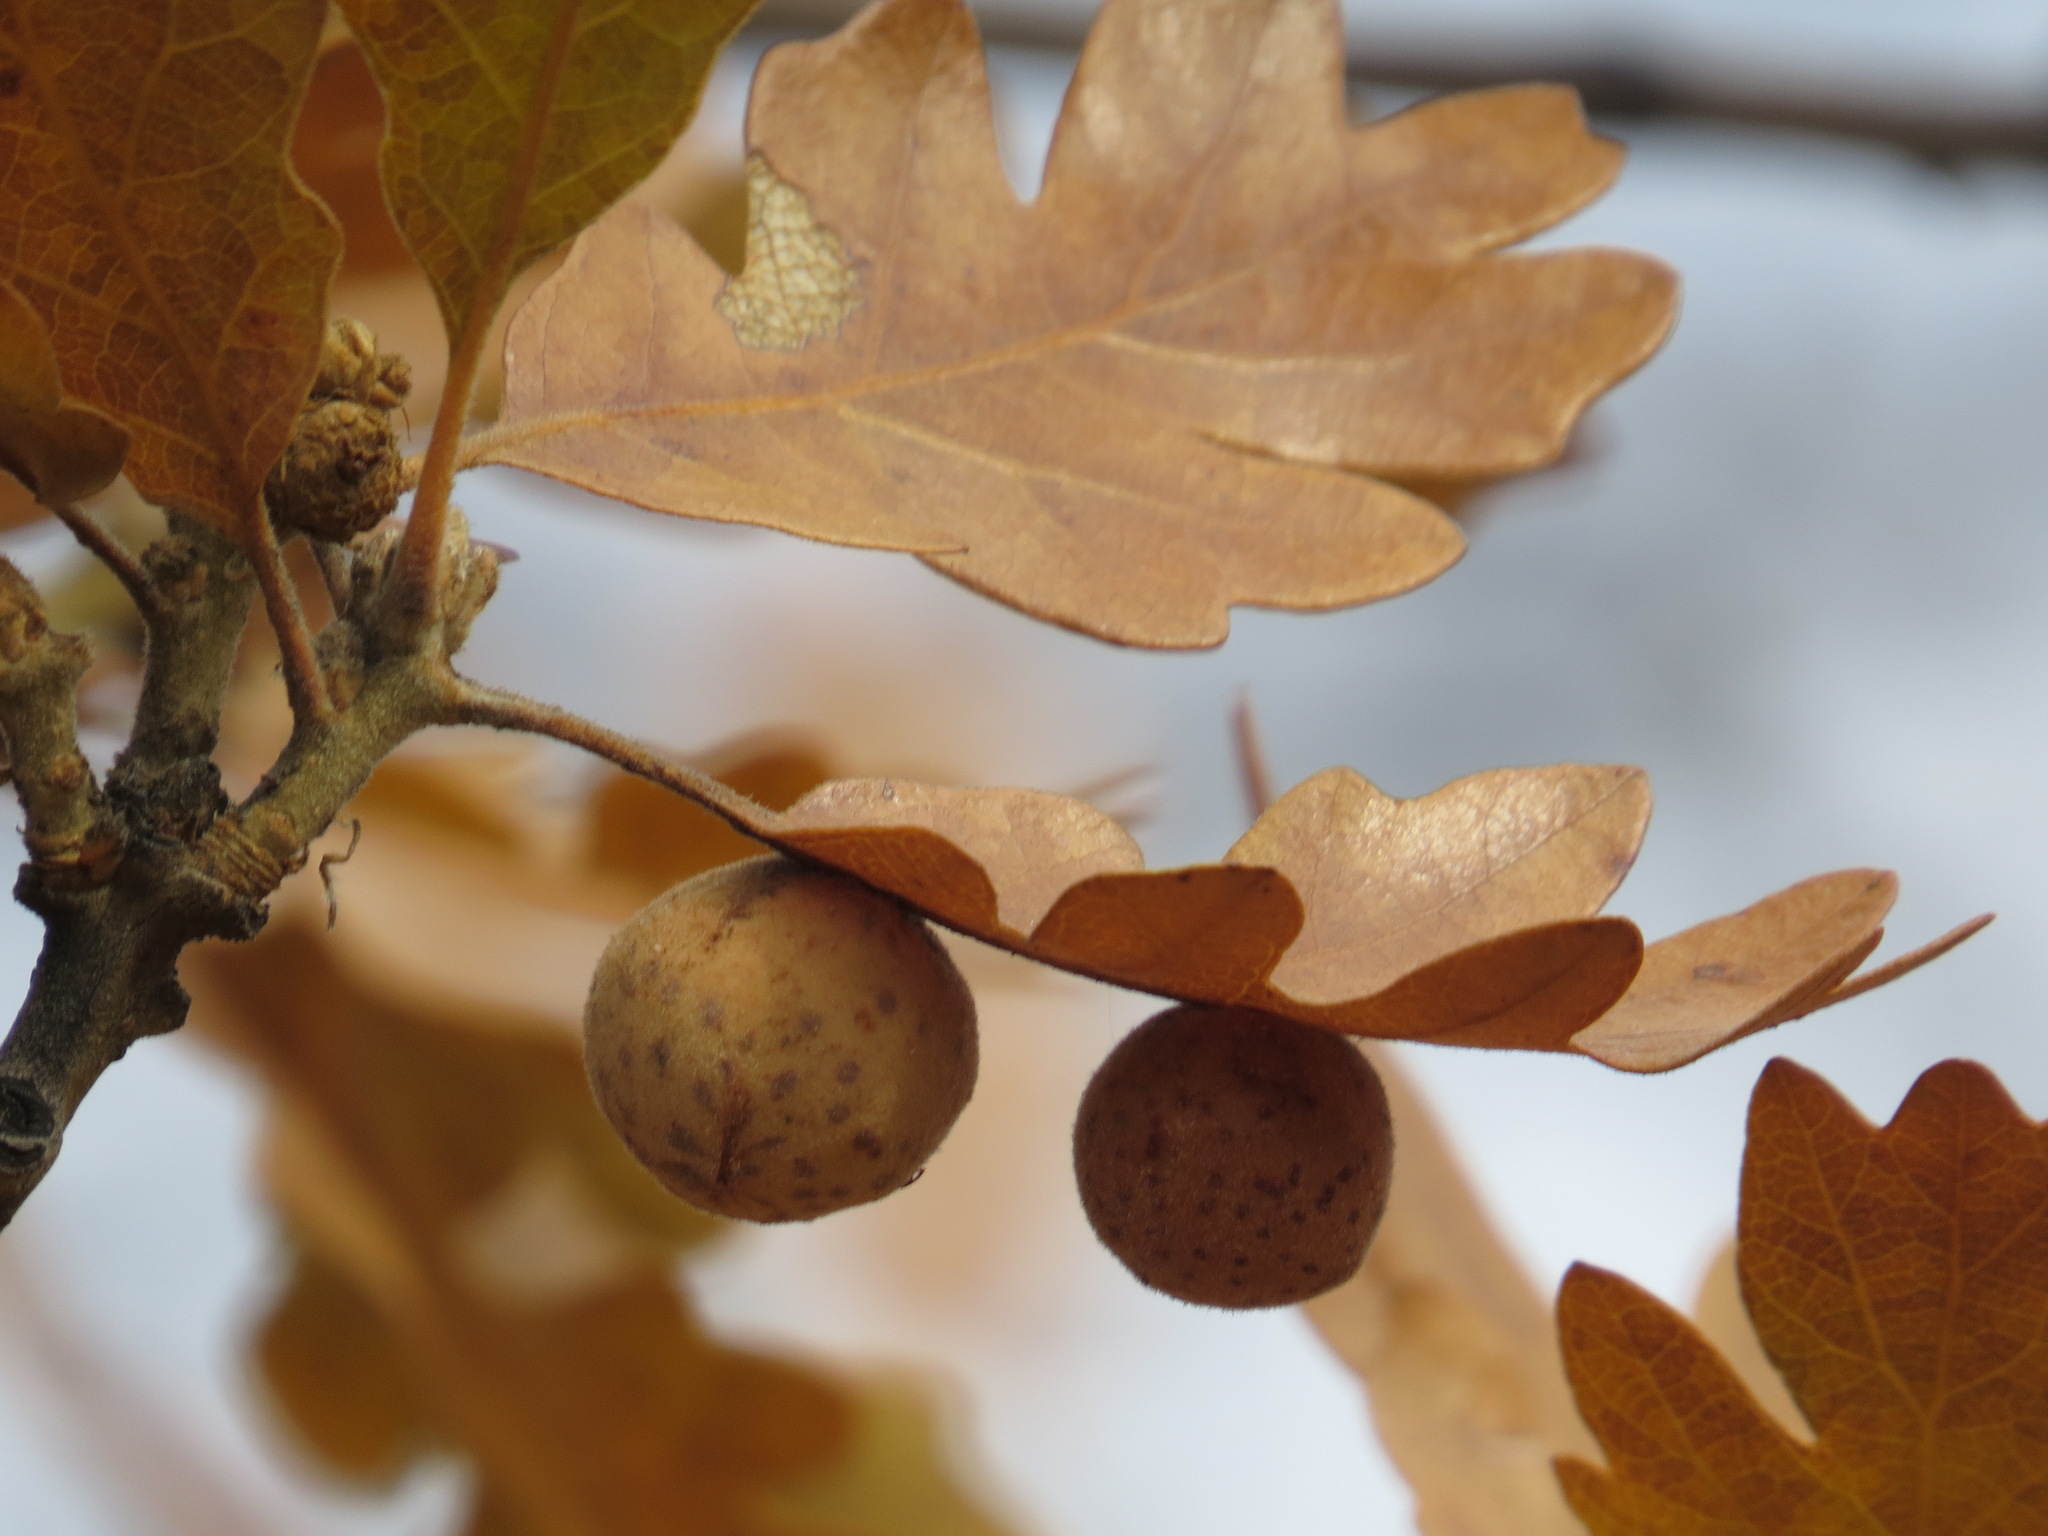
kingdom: Animalia
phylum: Arthropoda
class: Insecta
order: Hymenoptera
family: Cynipidae
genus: Cynips
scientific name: Cynips
